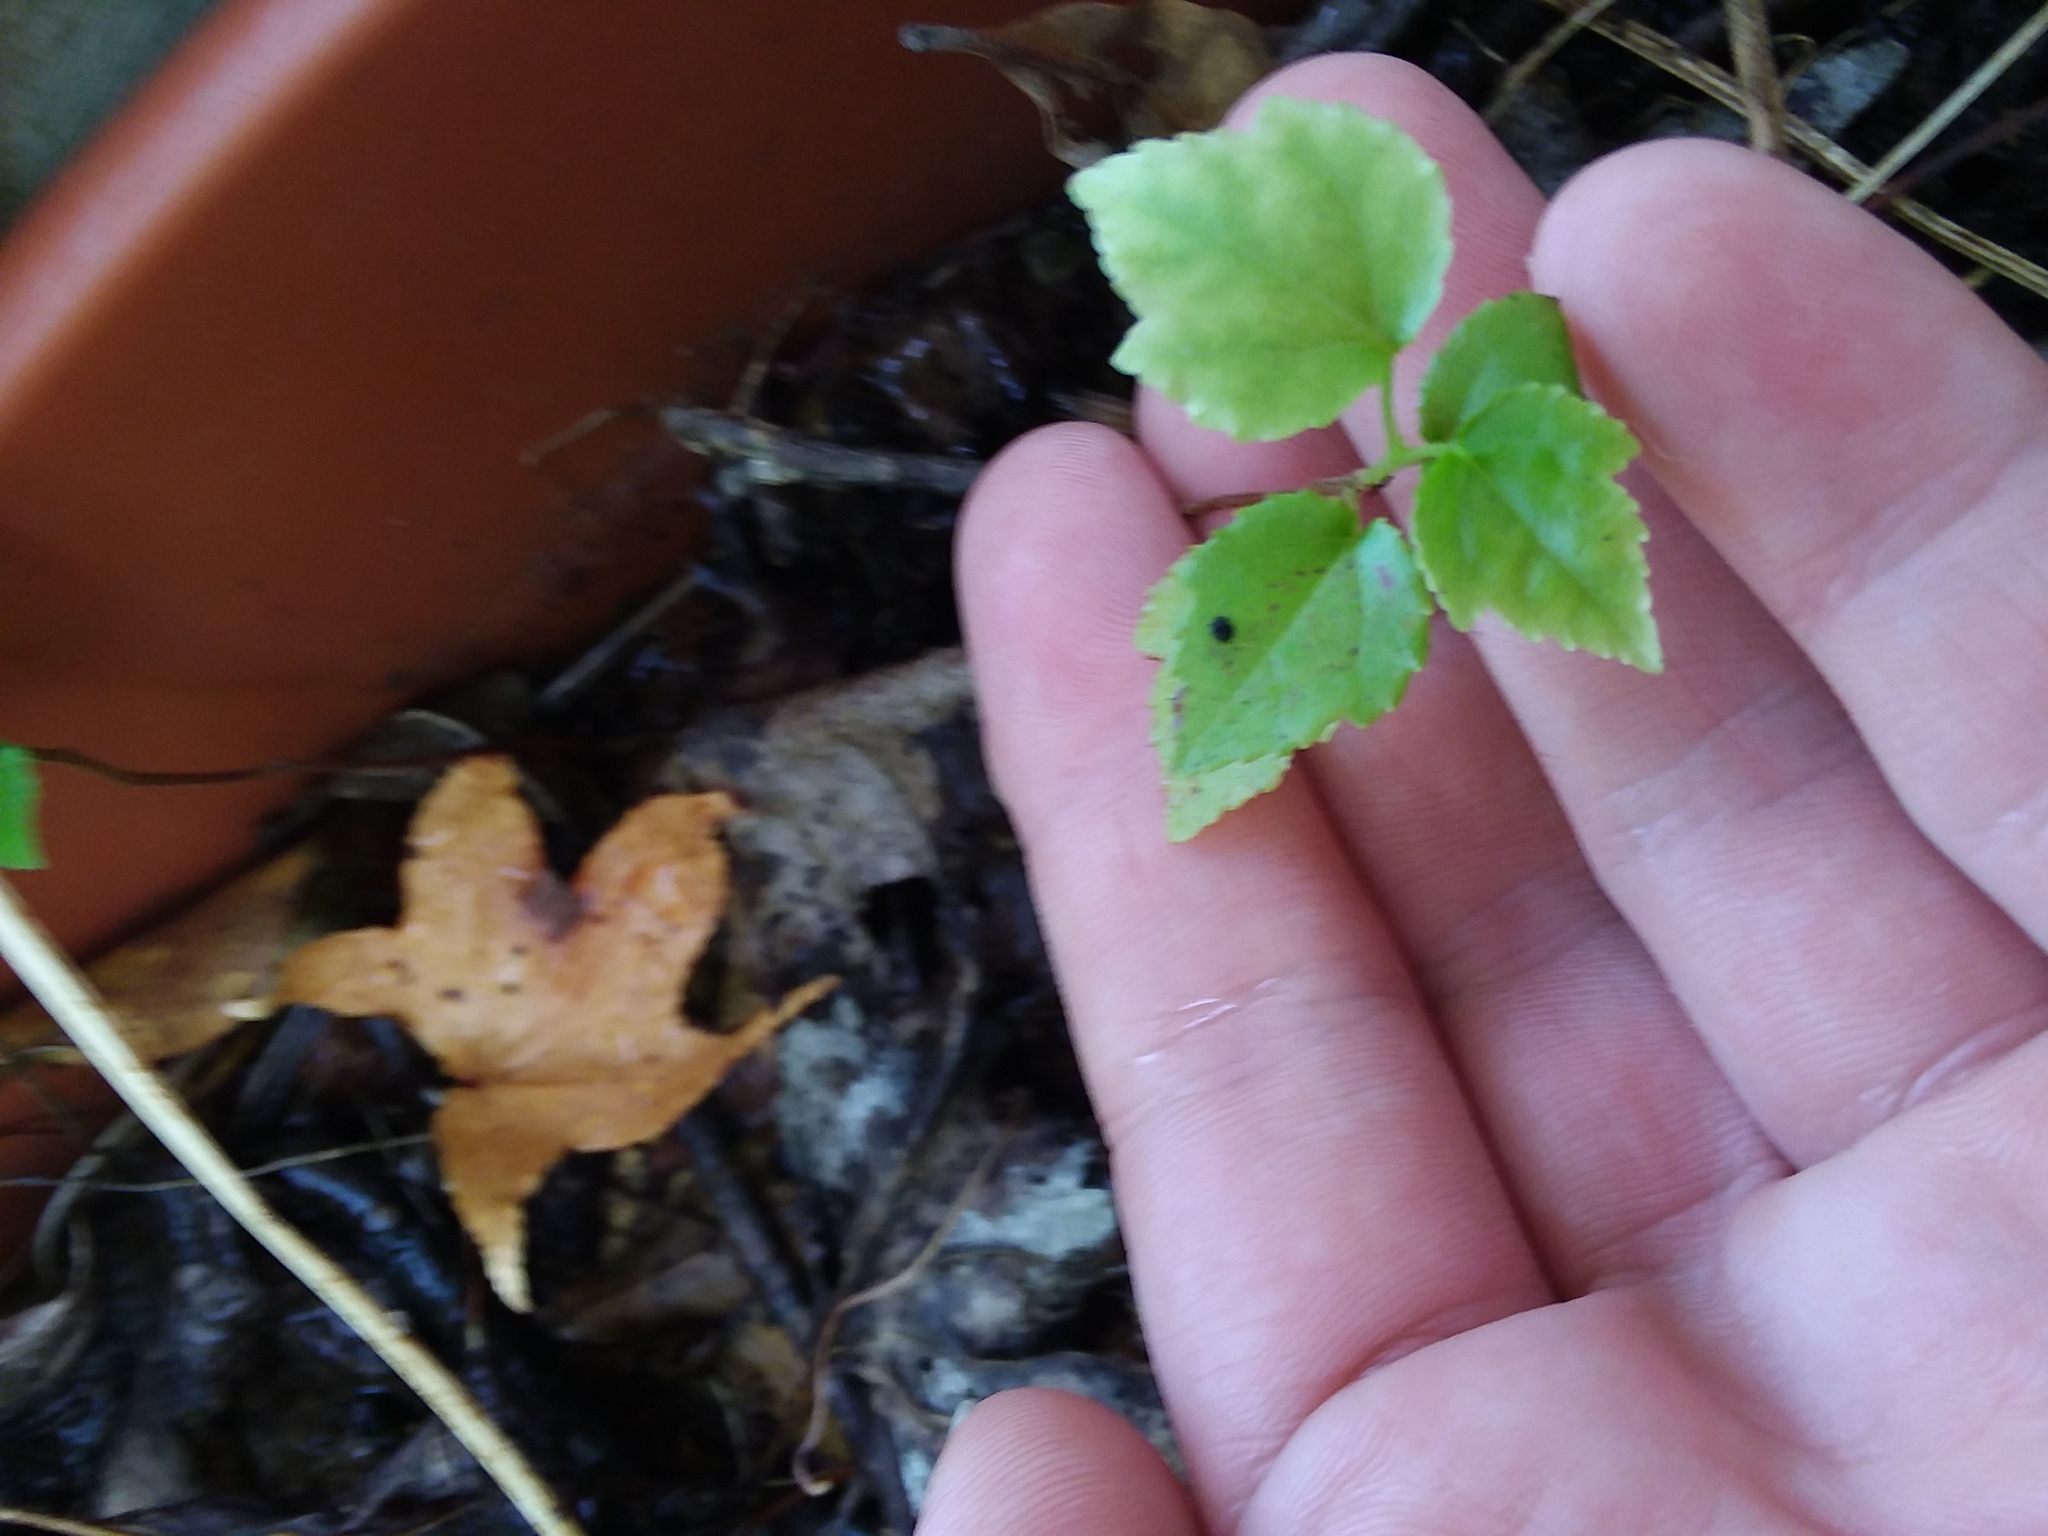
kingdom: Plantae
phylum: Tracheophyta
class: Magnoliopsida
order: Saxifragales
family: Altingiaceae
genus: Liquidambar
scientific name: Liquidambar styraciflua
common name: Sweet gum
